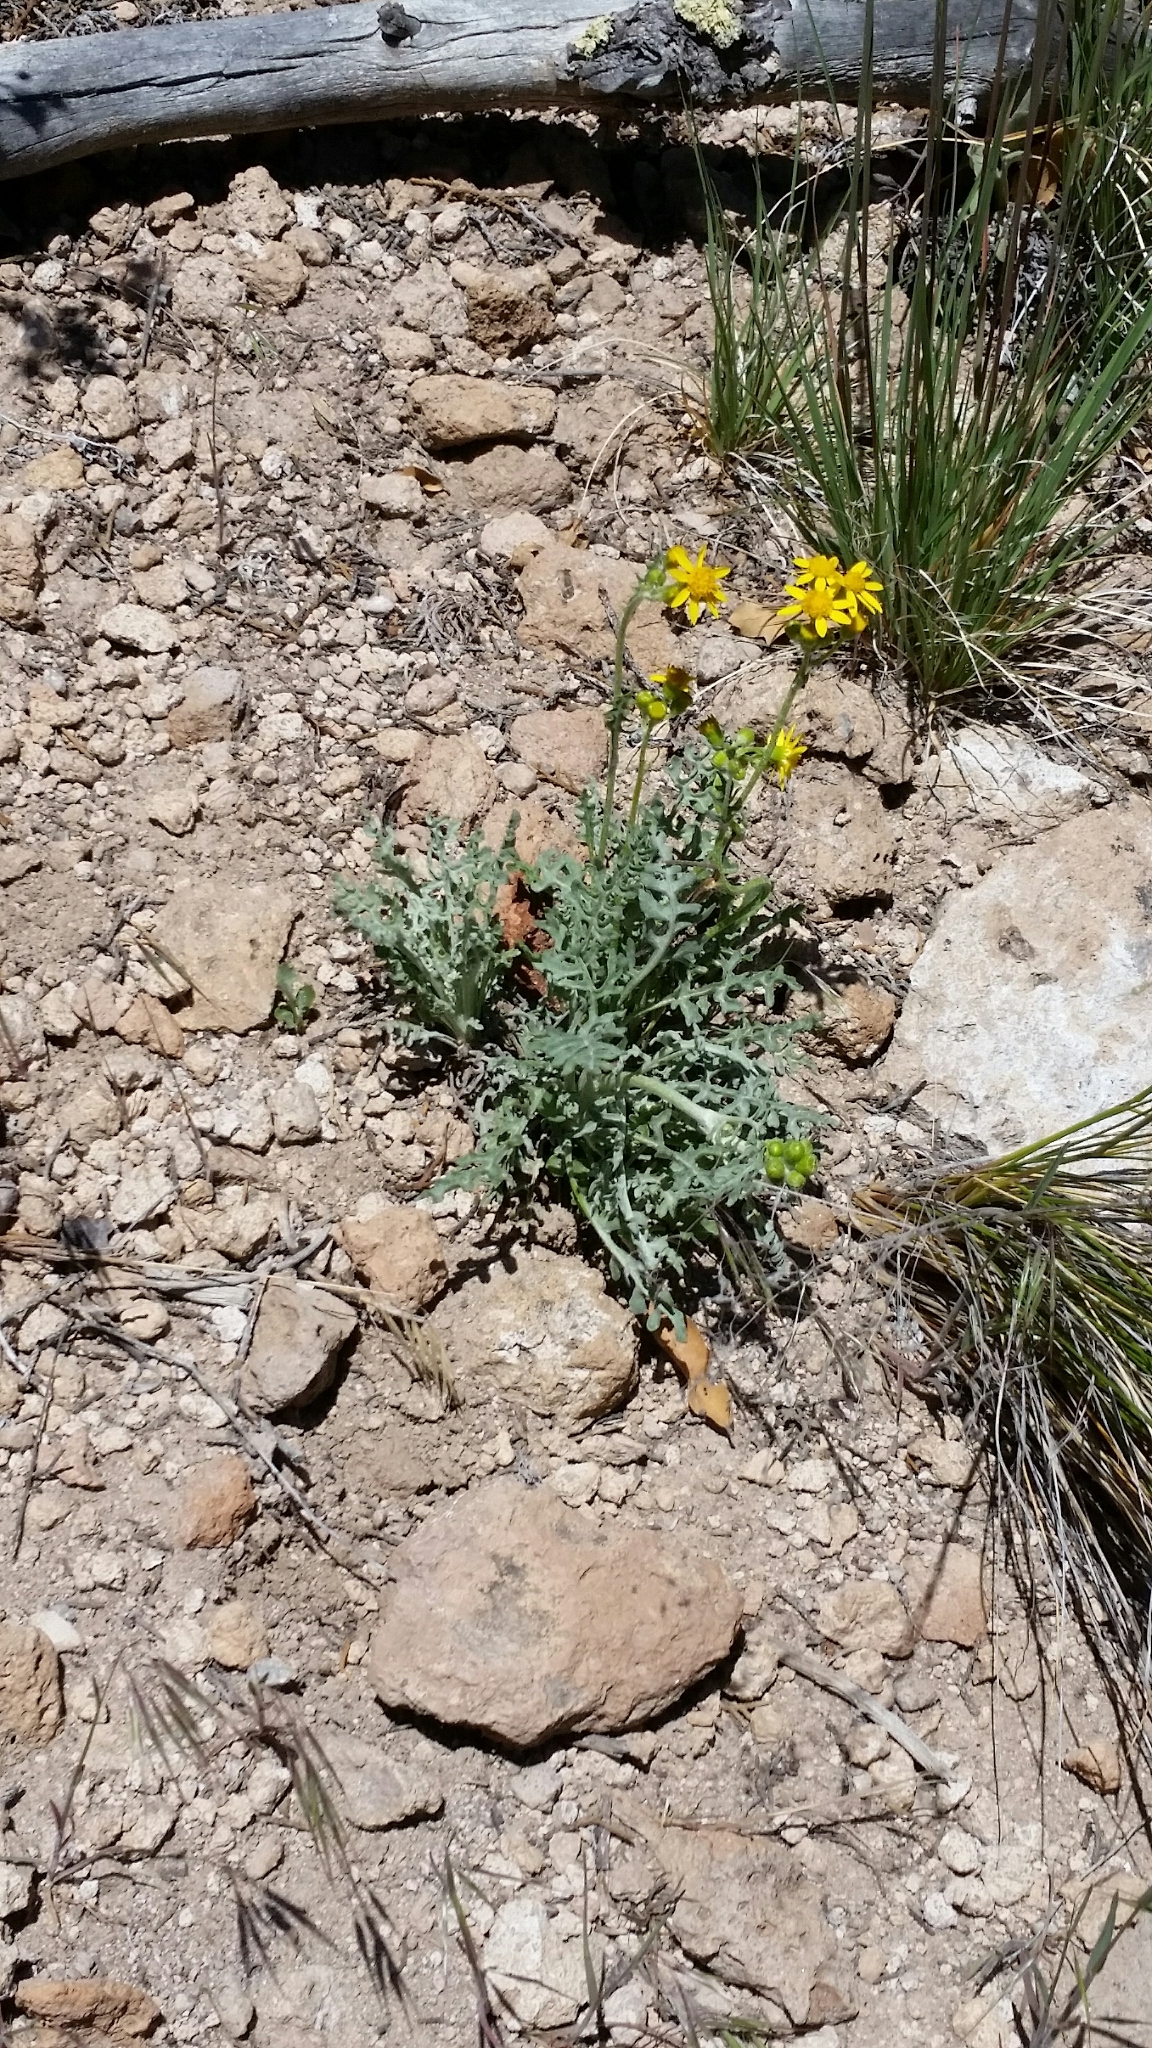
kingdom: Plantae
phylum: Tracheophyta
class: Magnoliopsida
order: Asterales
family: Asteraceae
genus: Packera
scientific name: Packera fendleri
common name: Notch-leaf butterweed
